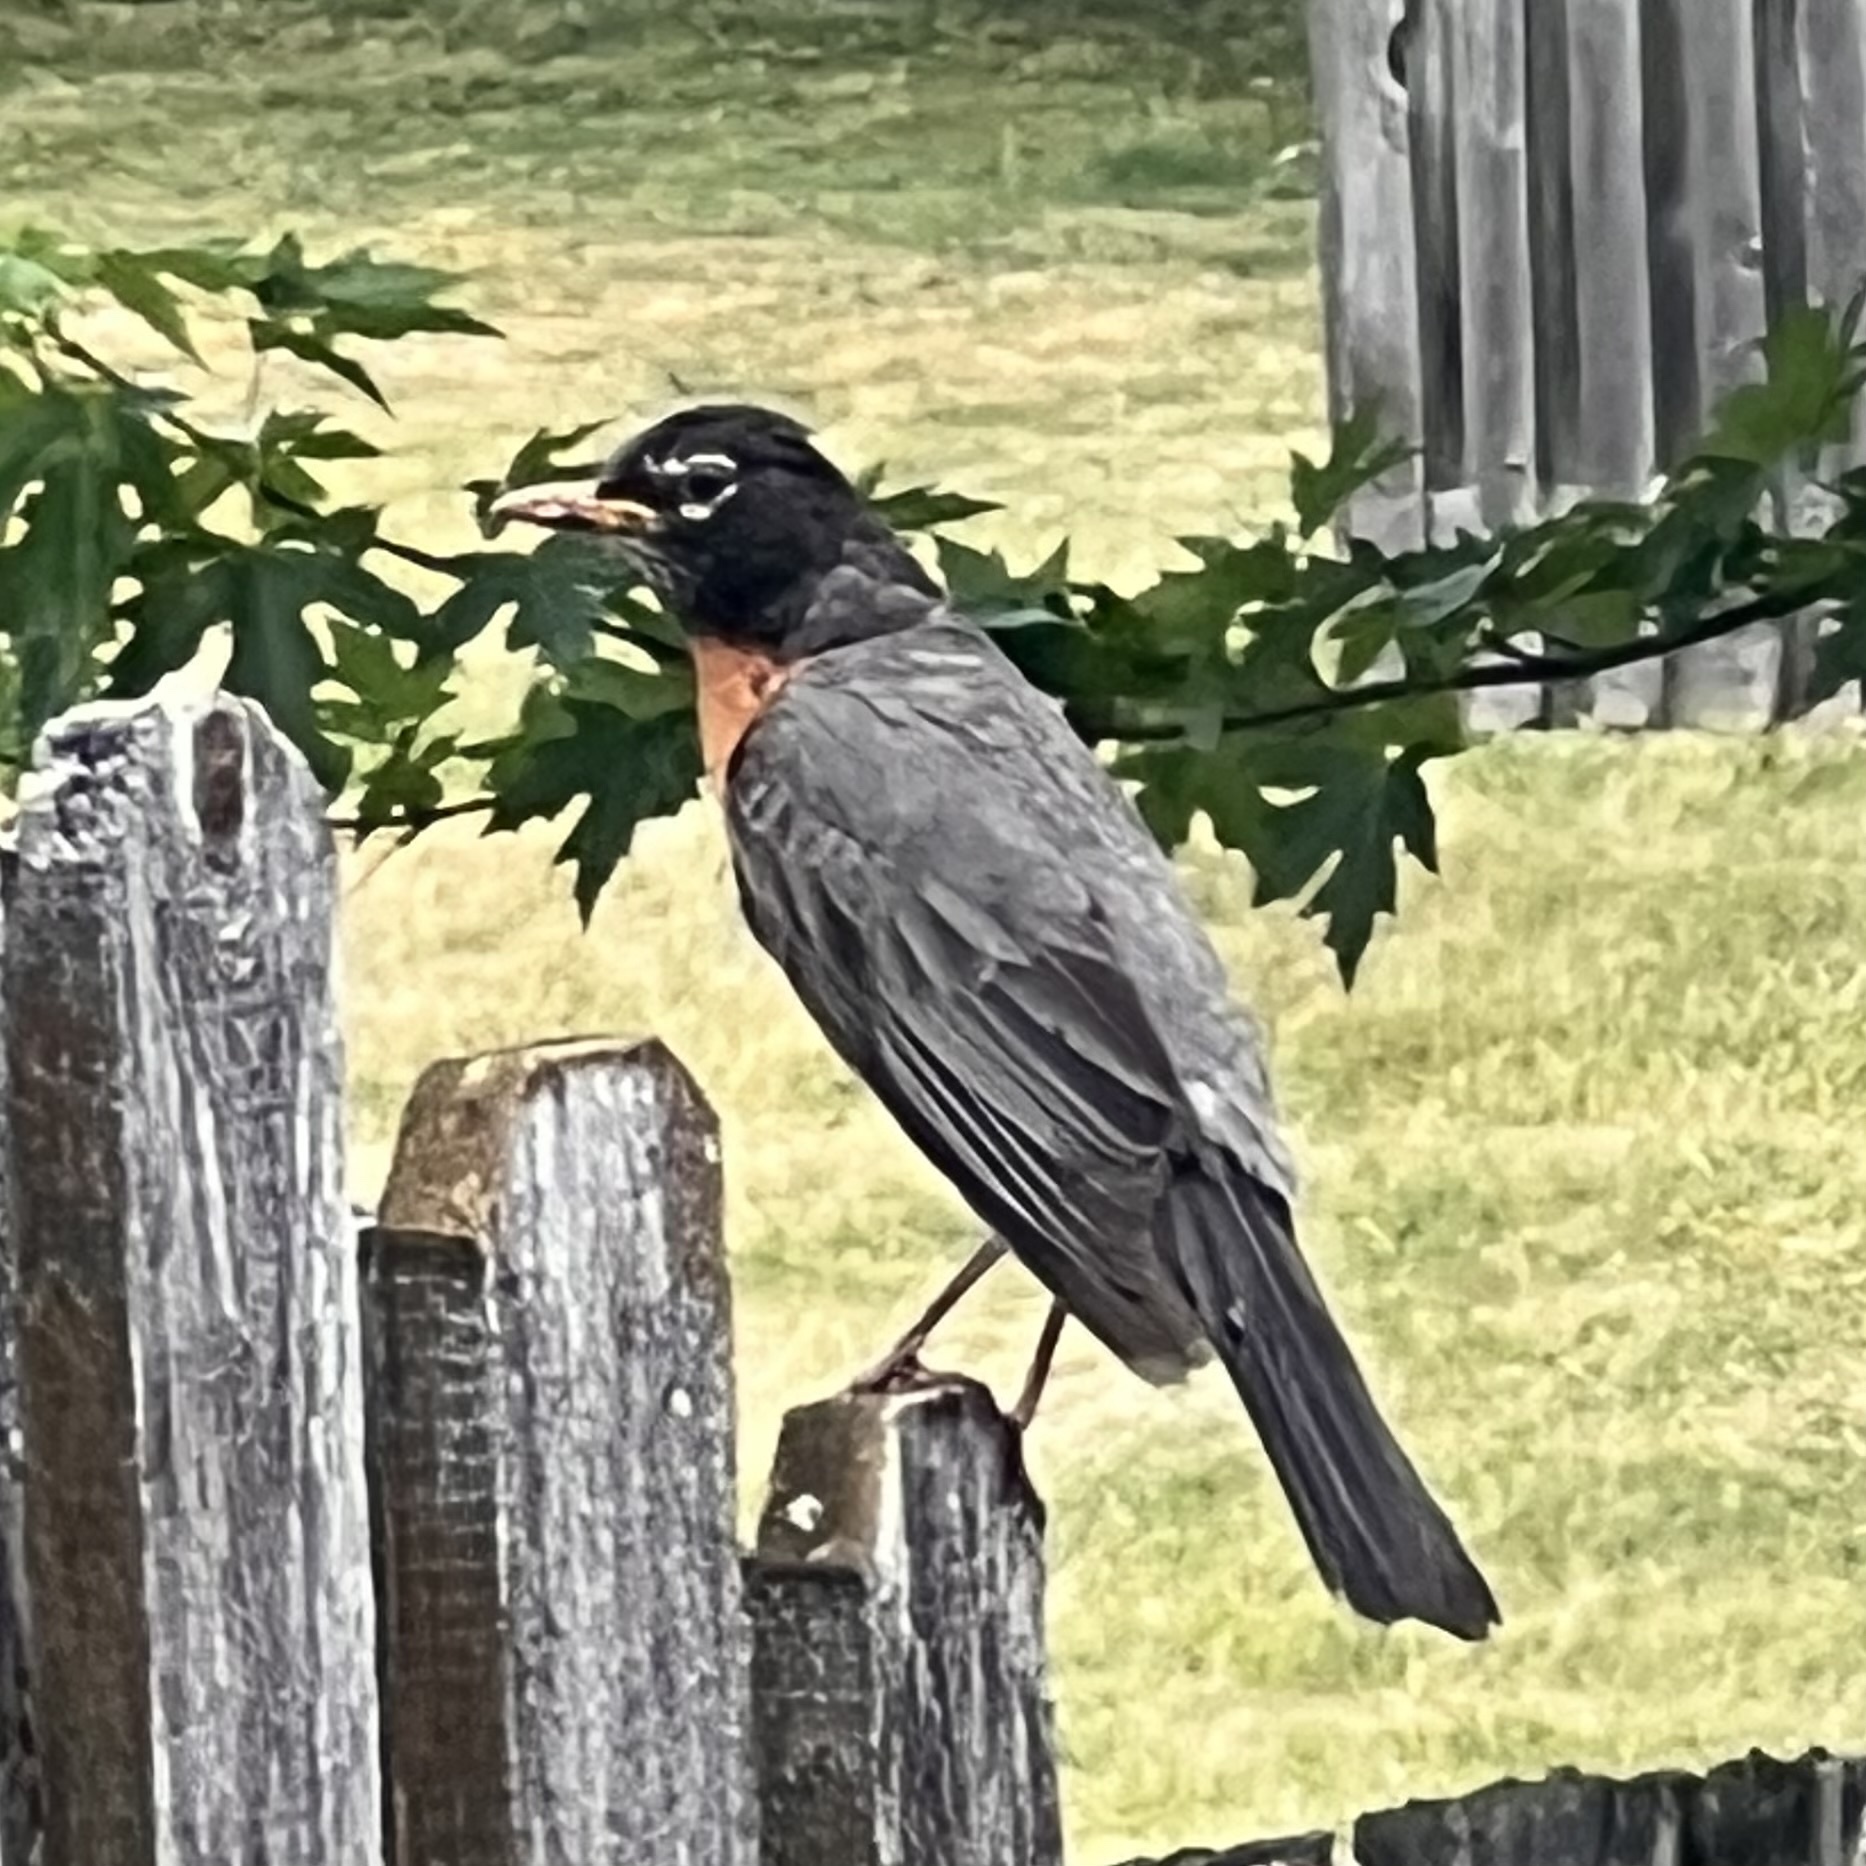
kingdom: Animalia
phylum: Chordata
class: Aves
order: Passeriformes
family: Turdidae
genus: Turdus
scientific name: Turdus migratorius
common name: American robin
